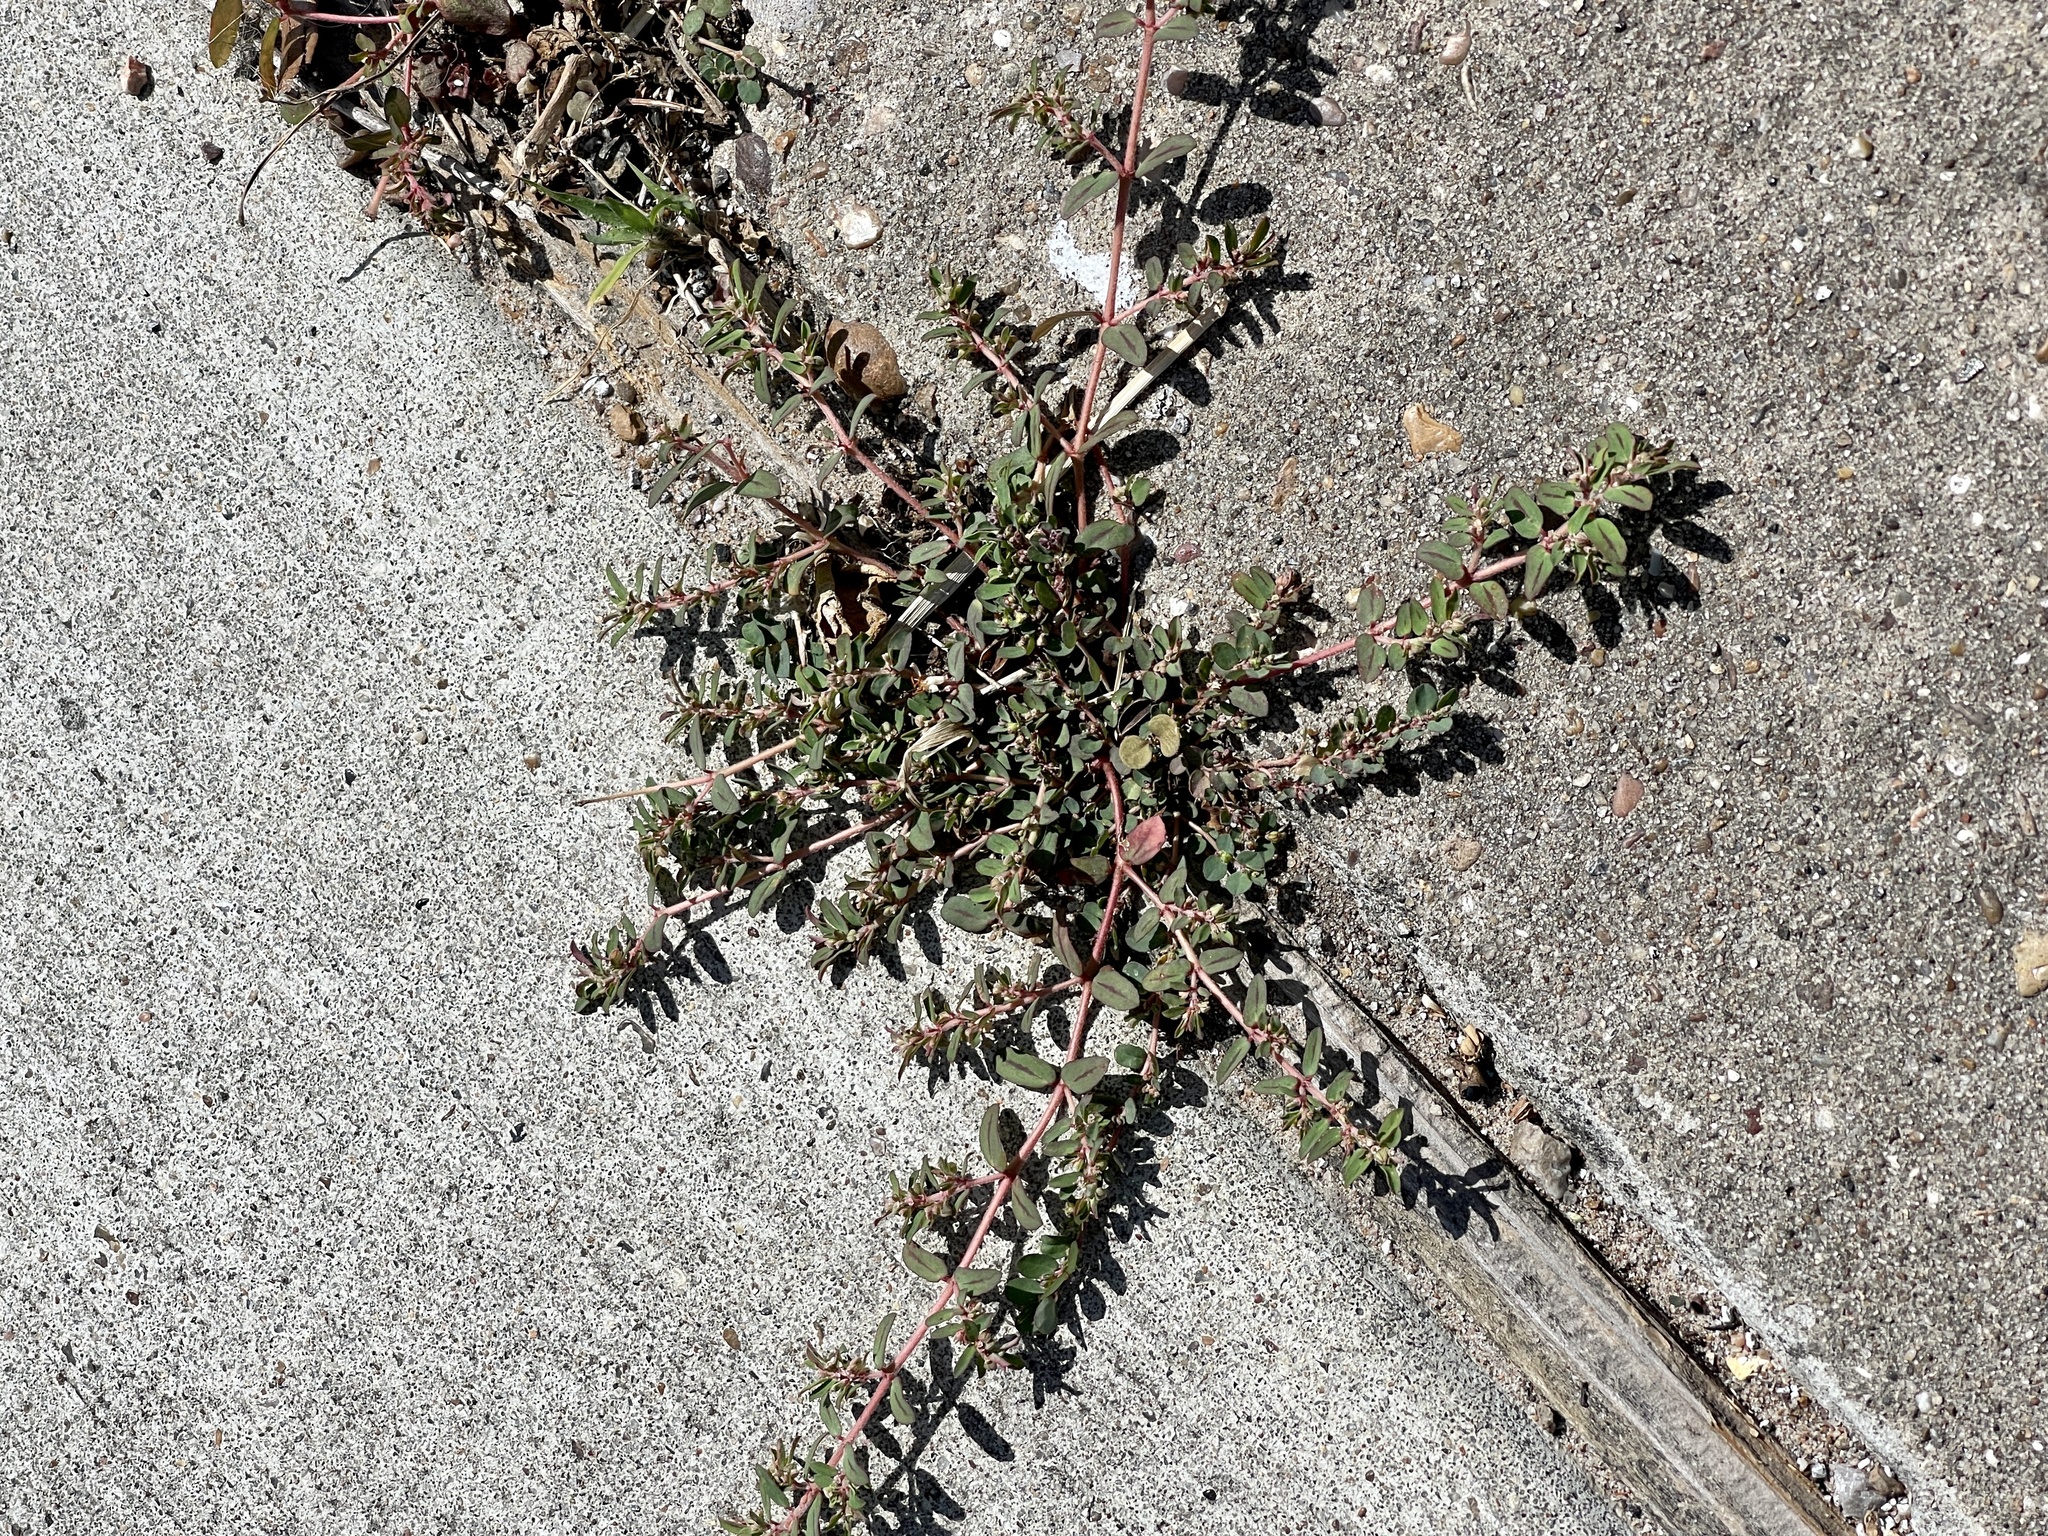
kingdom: Plantae
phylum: Tracheophyta
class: Magnoliopsida
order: Malpighiales
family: Euphorbiaceae
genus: Euphorbia
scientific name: Euphorbia maculata
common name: Spotted spurge
